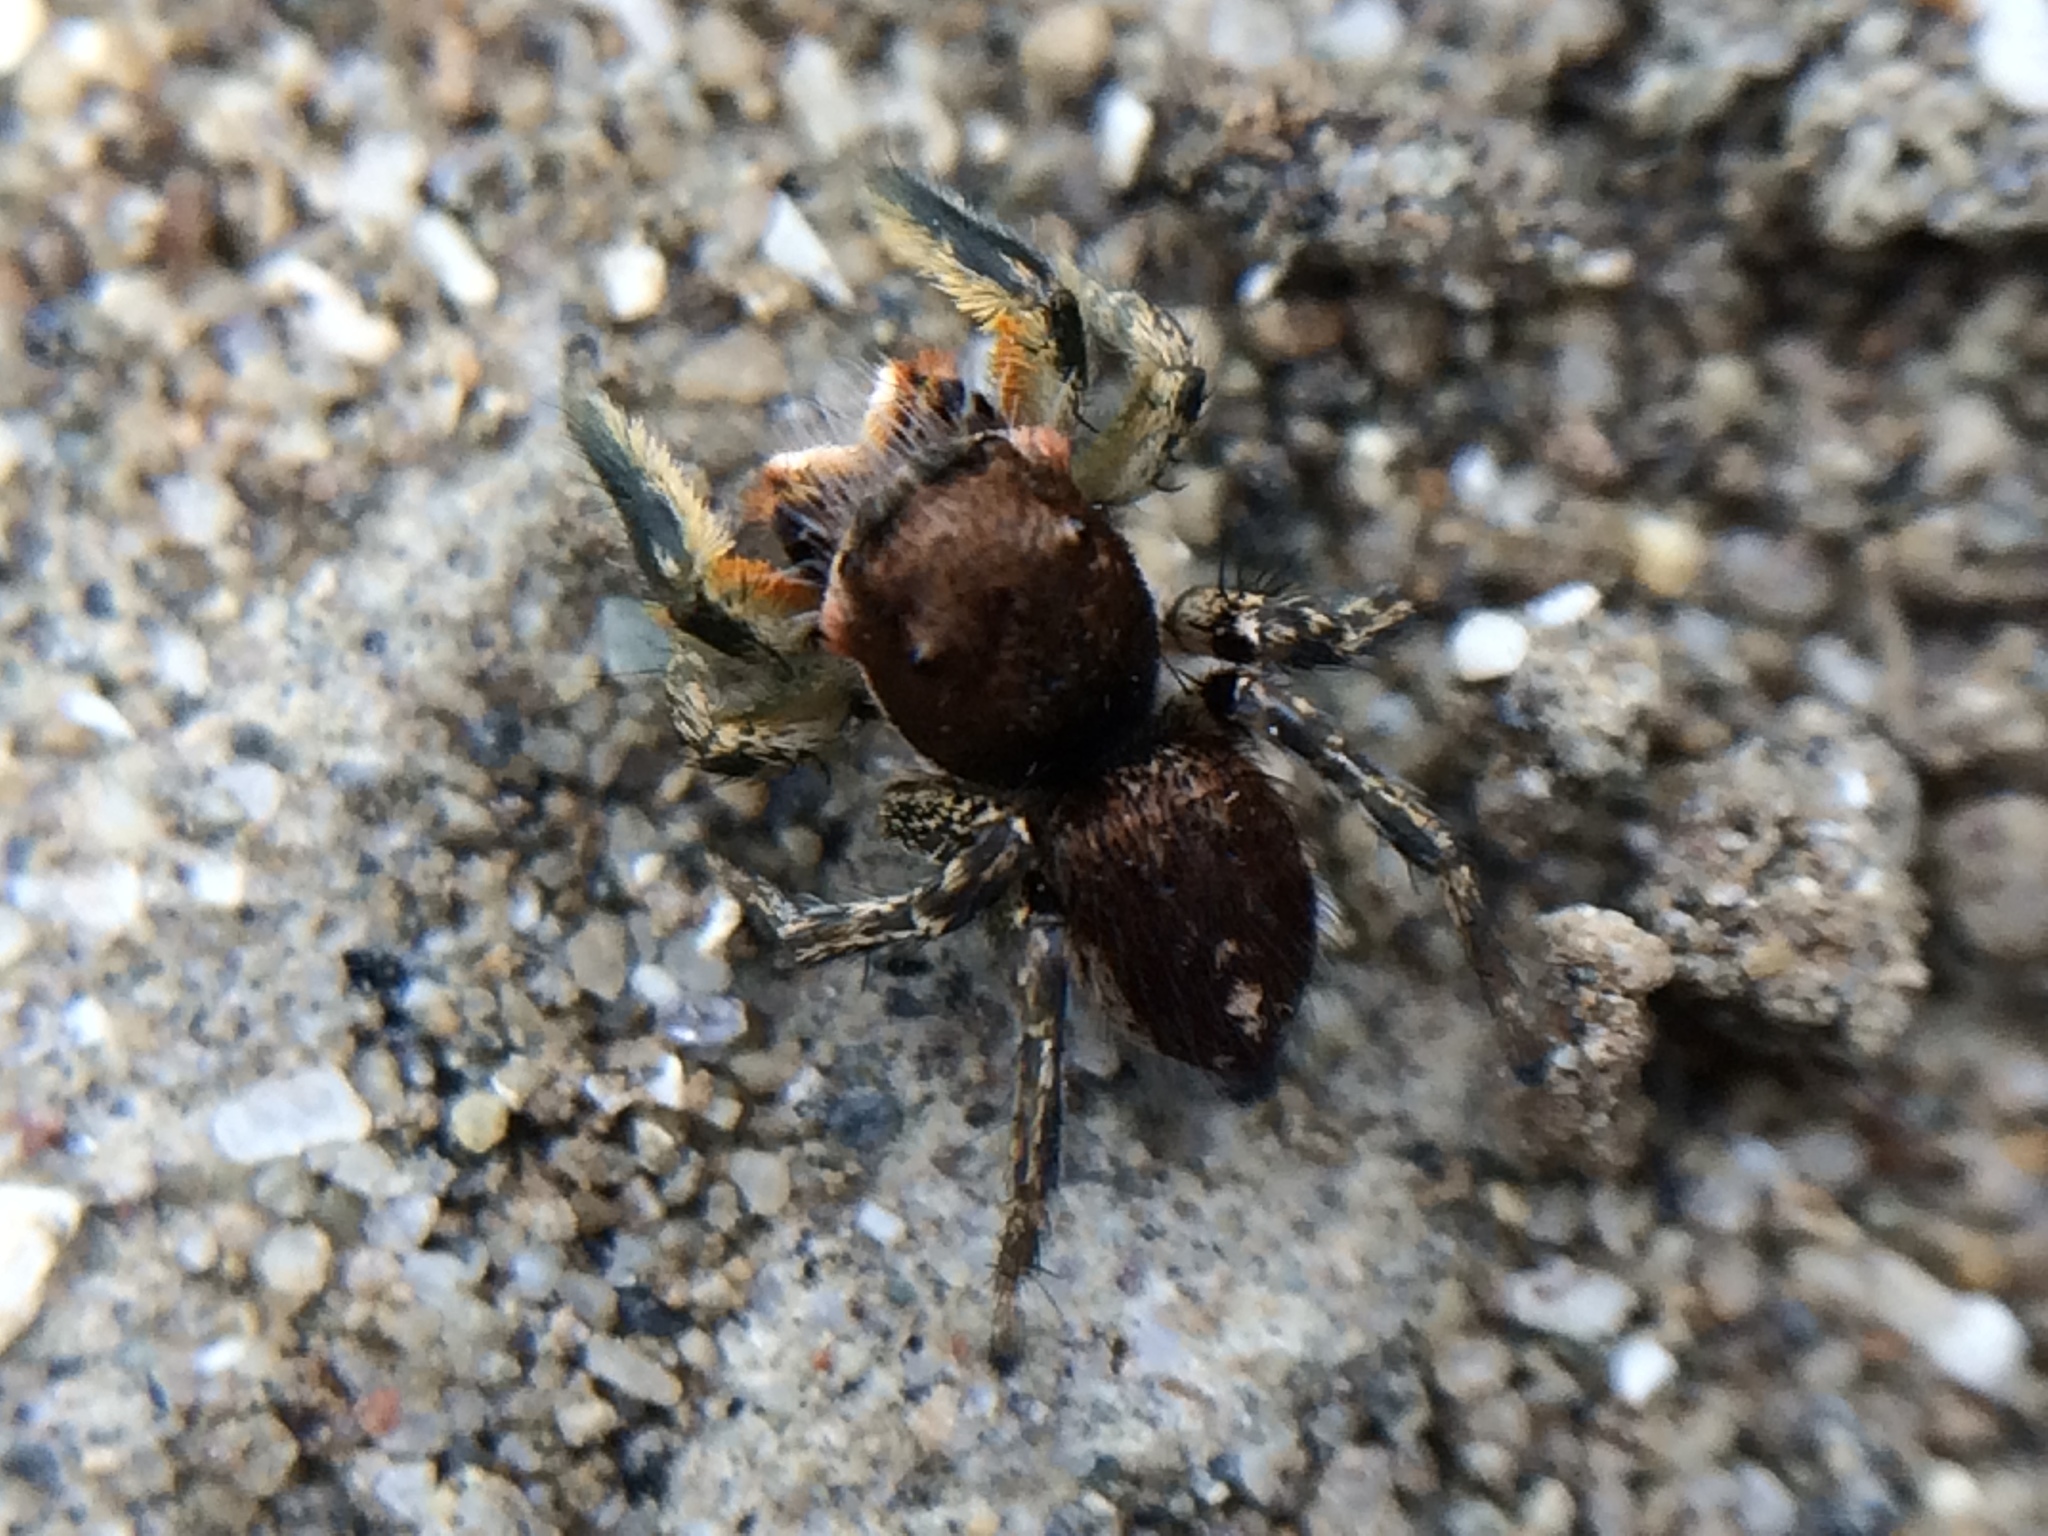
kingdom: Animalia
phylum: Arthropoda
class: Arachnida
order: Araneae
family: Salticidae
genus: Habronattus
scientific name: Habronattus mustaciatus
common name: Jumping spider
